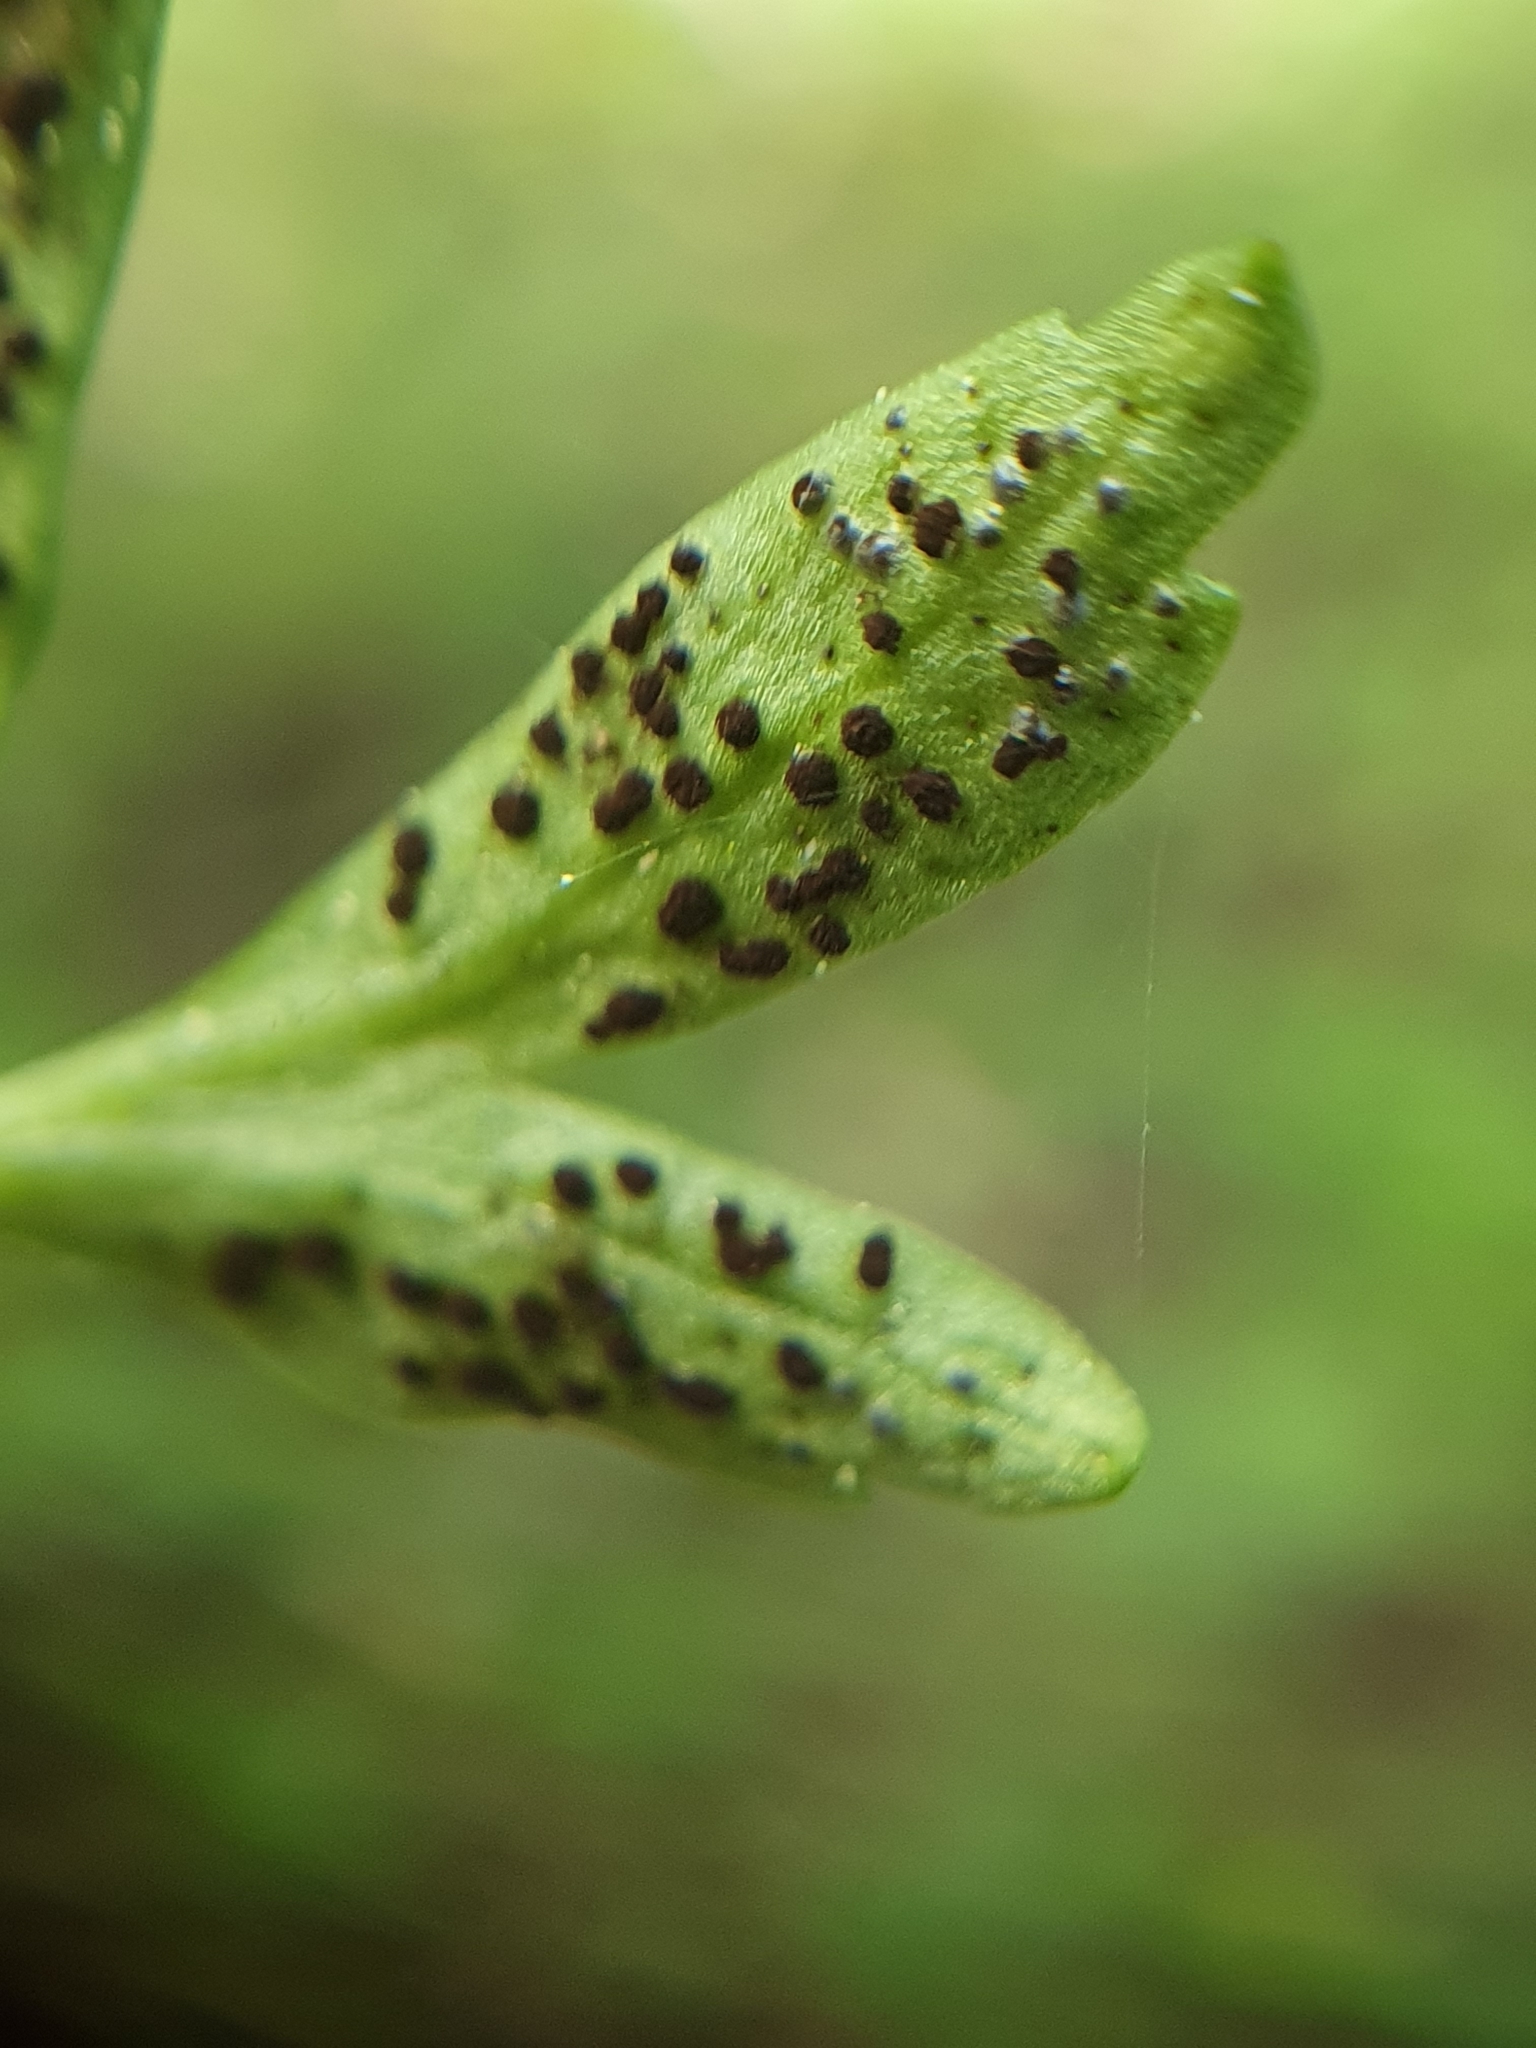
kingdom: Fungi
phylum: Basidiomycota
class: Pucciniomycetes
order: Pucciniales
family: Tranzscheliaceae
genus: Tranzschelia
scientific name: Tranzschelia anemones
